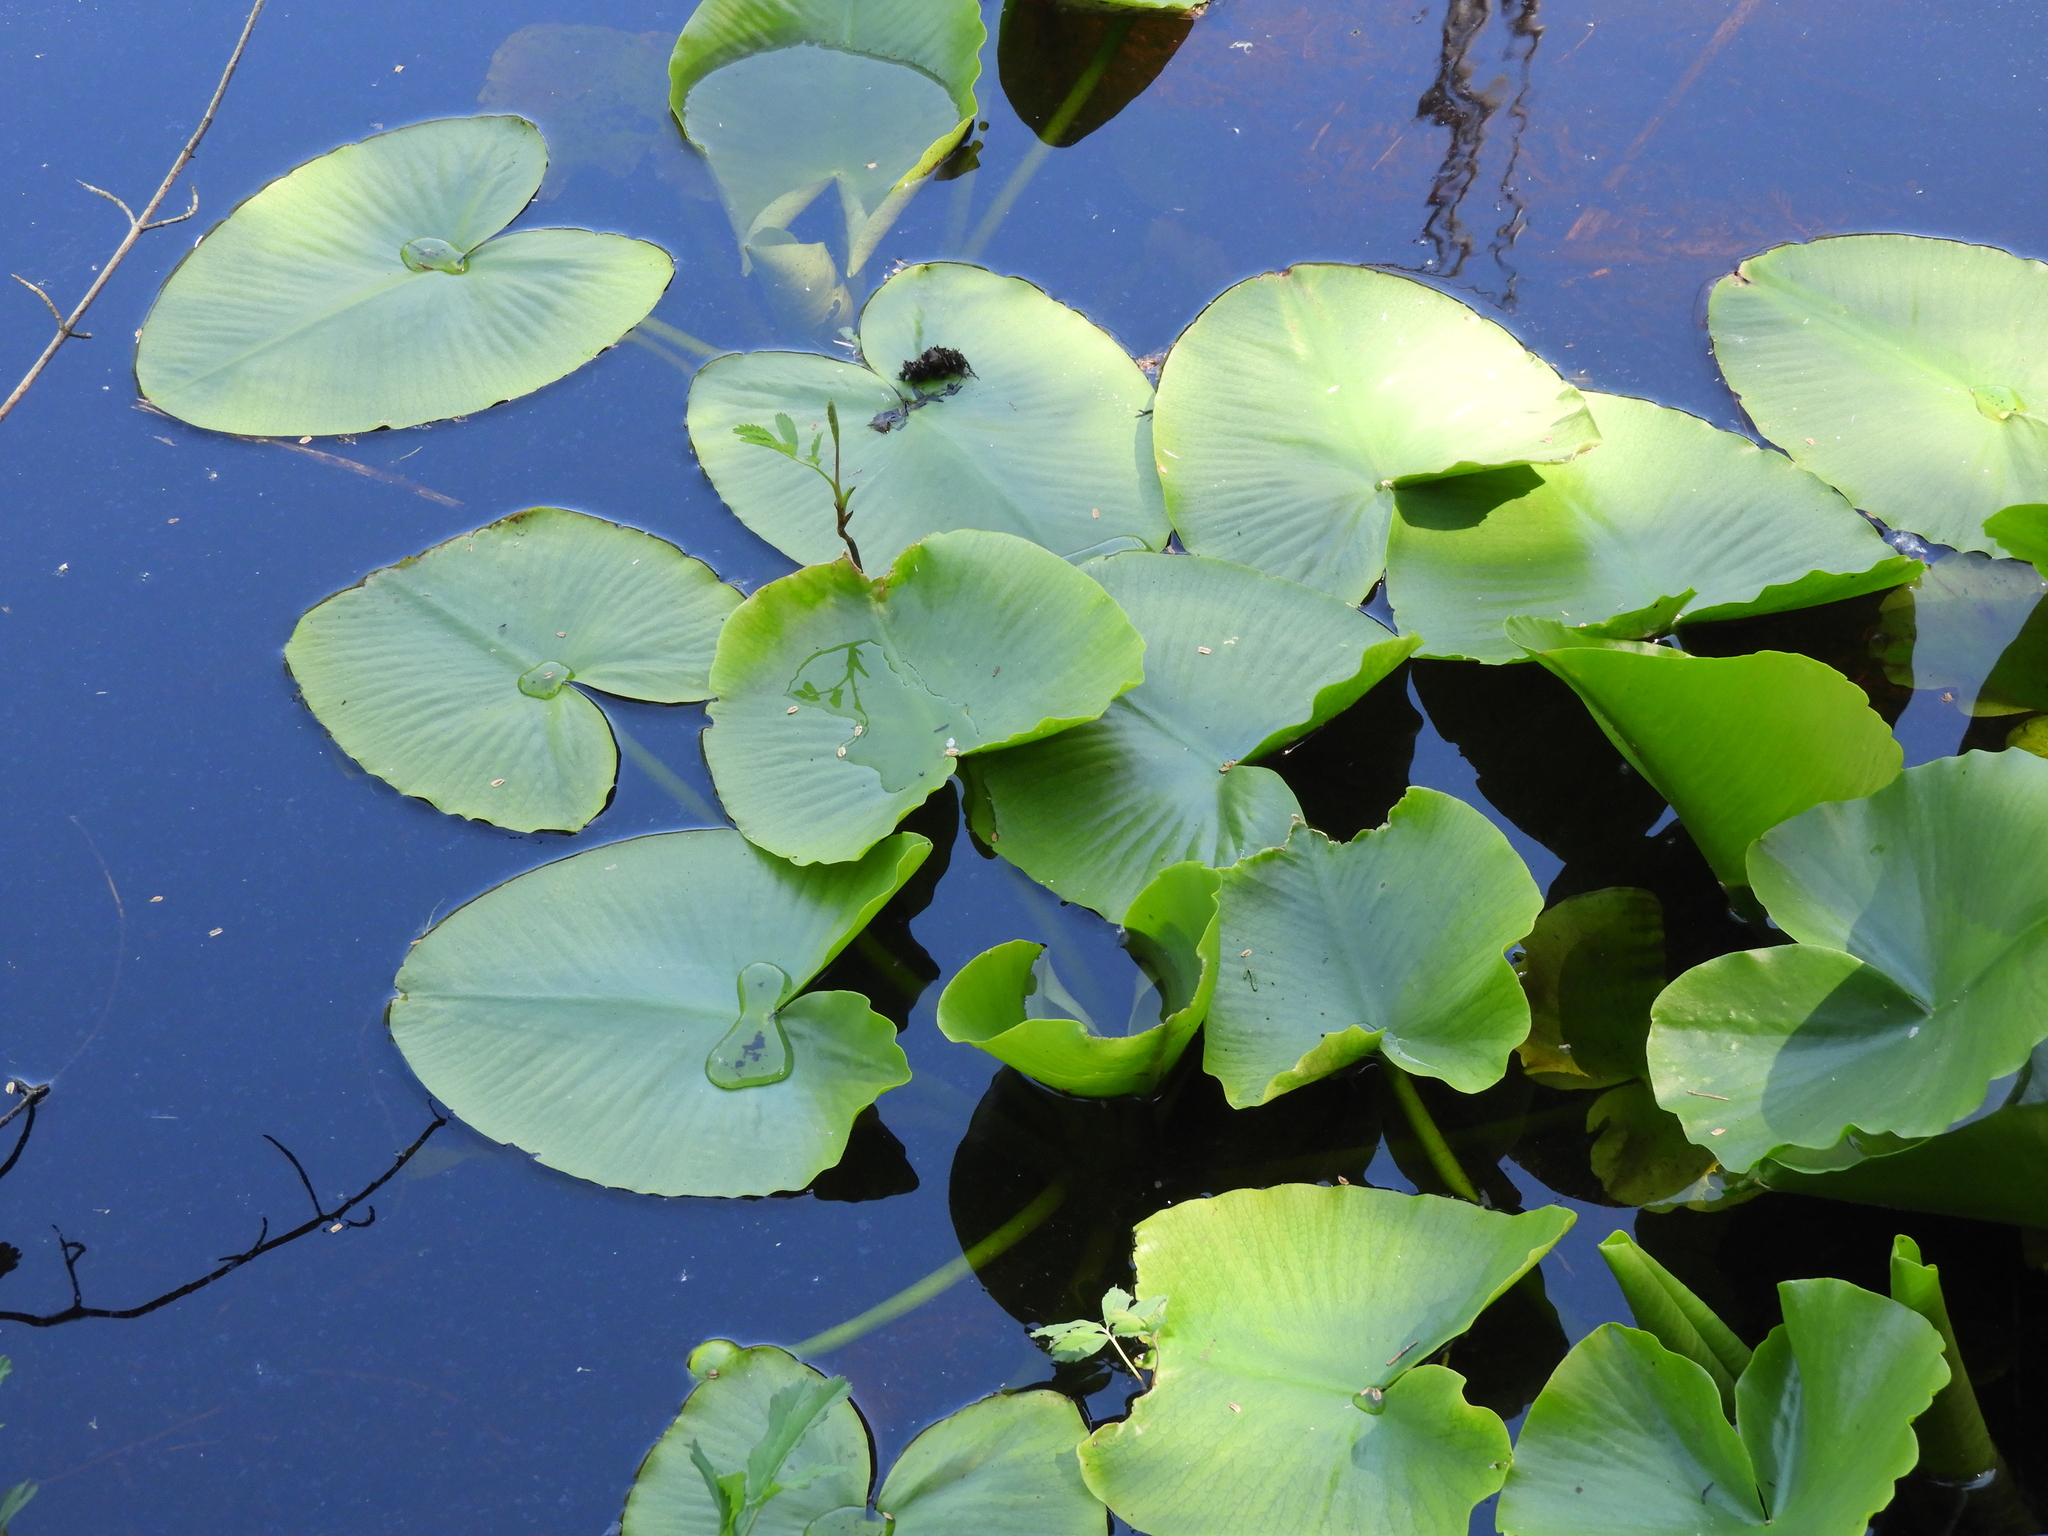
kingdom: Plantae
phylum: Tracheophyta
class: Magnoliopsida
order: Nymphaeales
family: Nymphaeaceae
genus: Nuphar
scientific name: Nuphar polysepala
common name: Rocky mountain cow-lily
